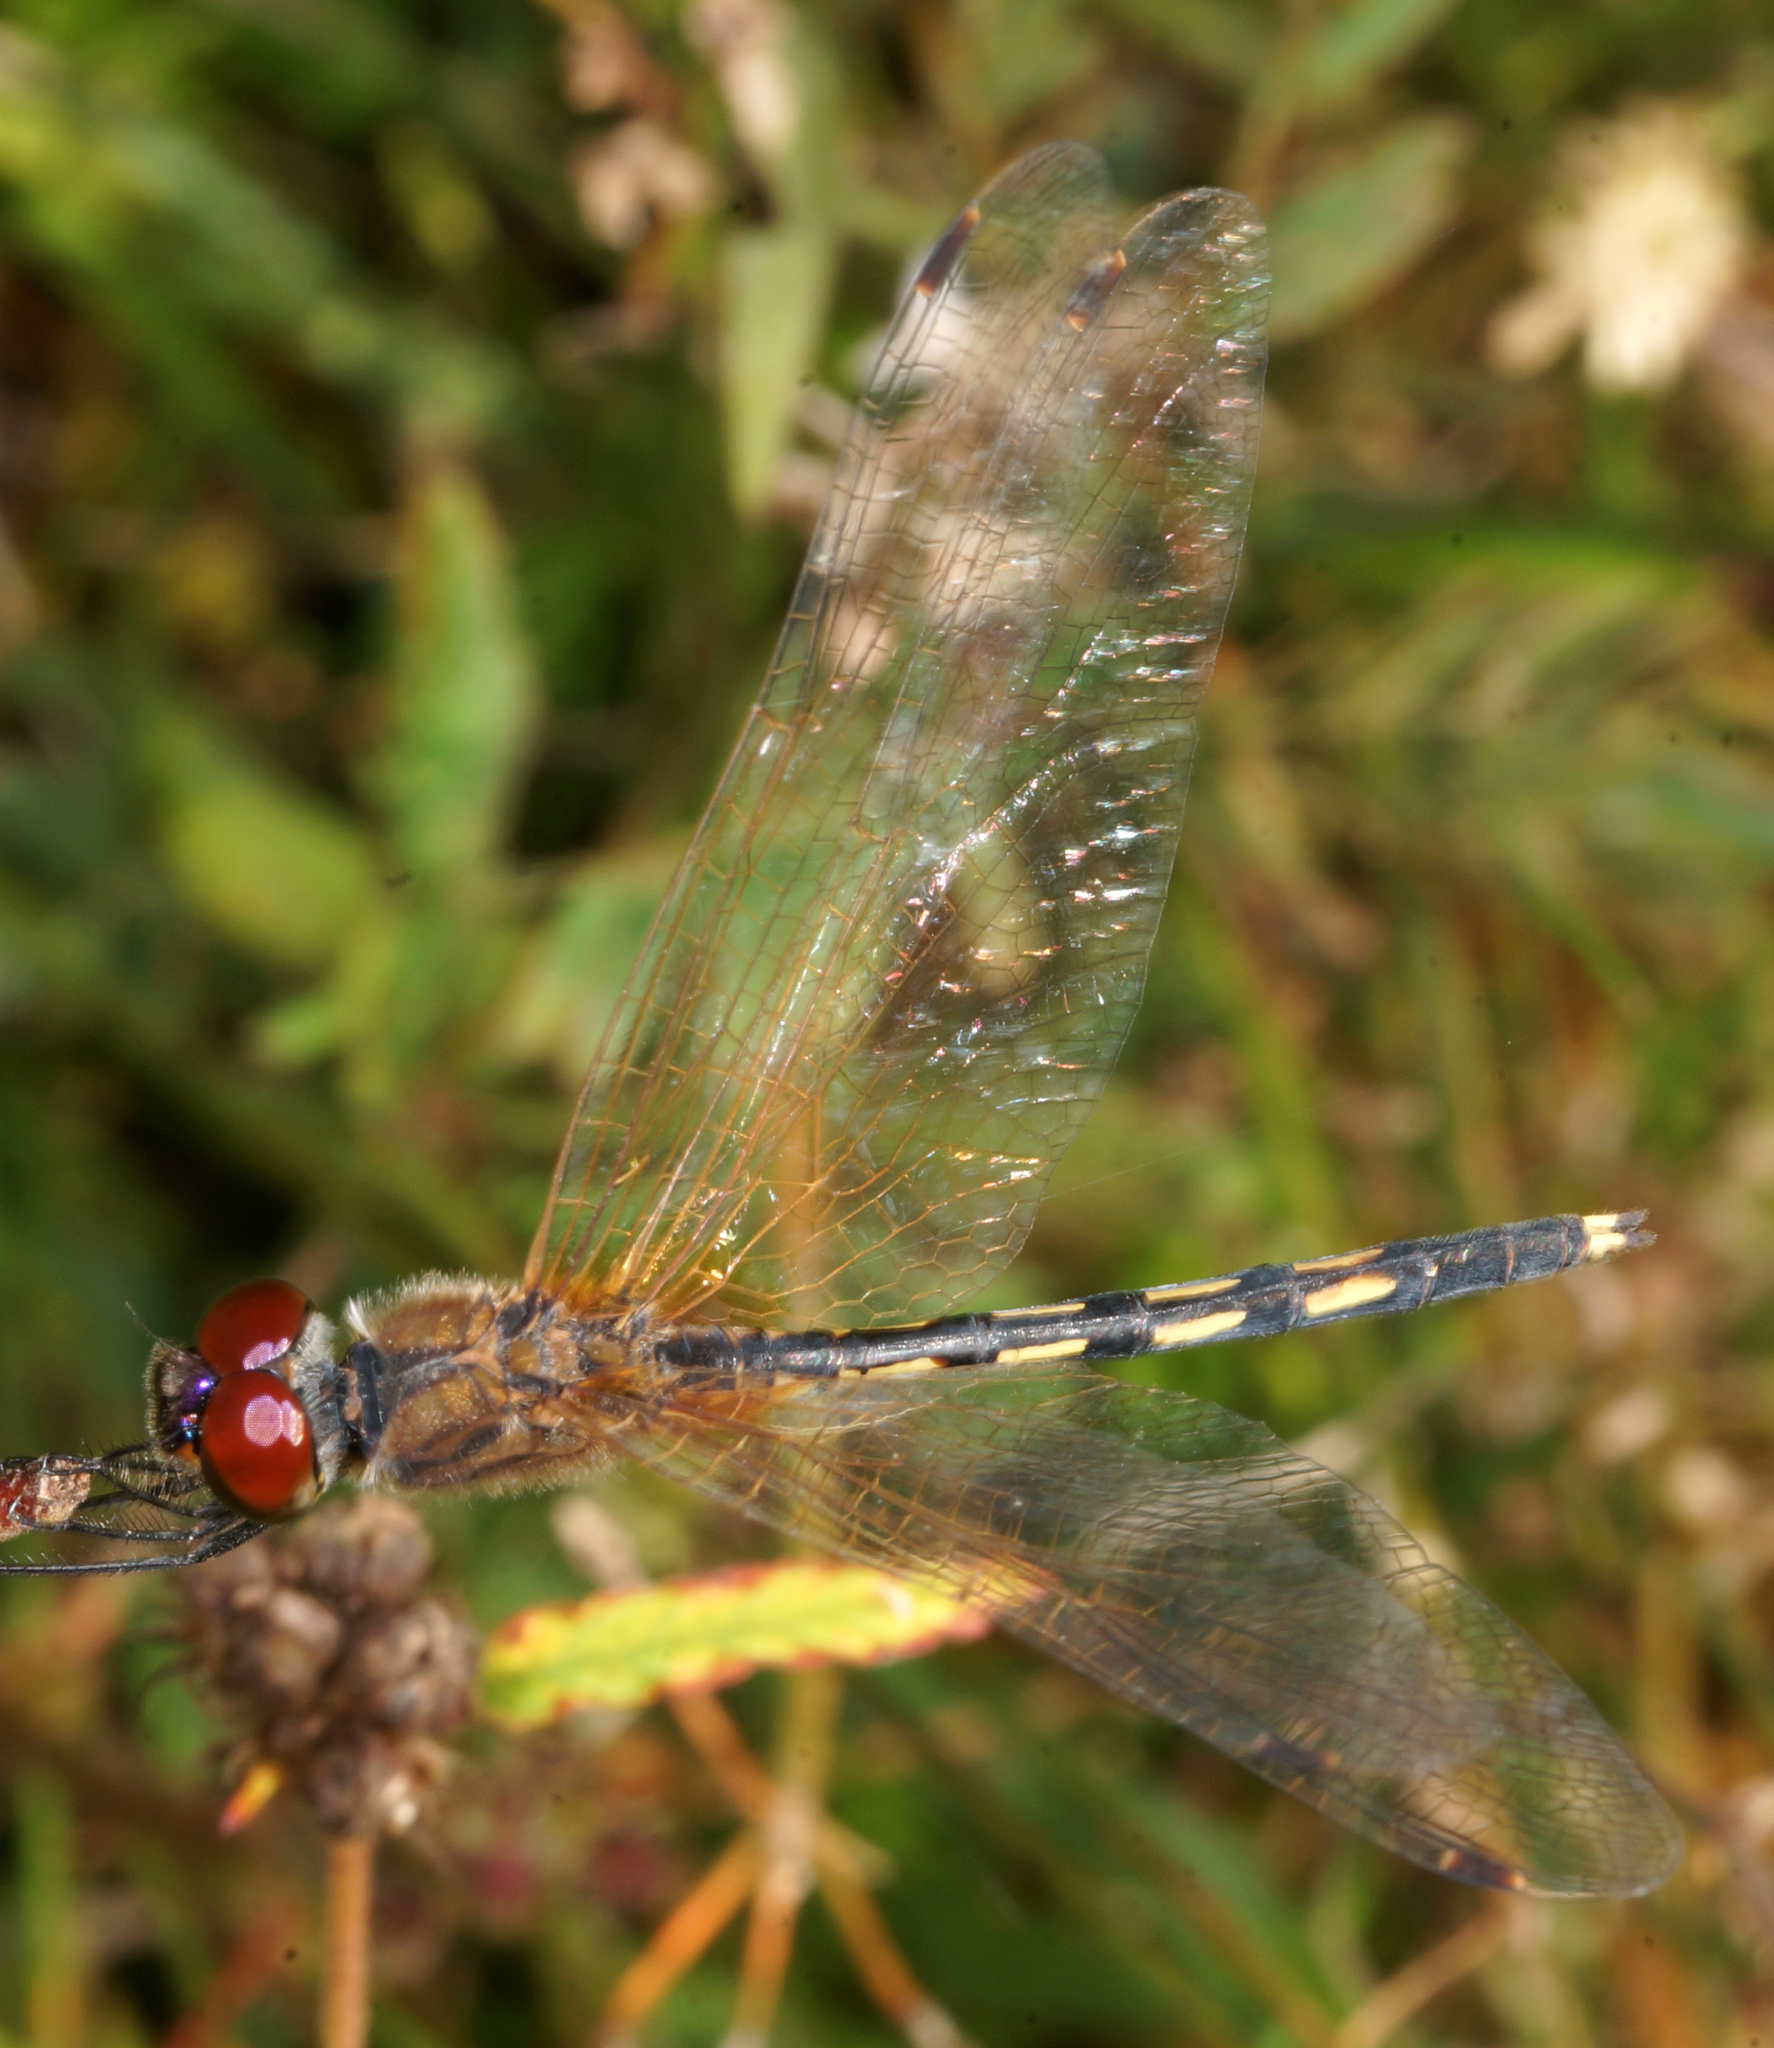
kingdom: Animalia
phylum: Arthropoda
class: Insecta
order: Odonata
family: Libellulidae
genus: Trithemis
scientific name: Trithemis pallidinervis
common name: Dancing dropwing
